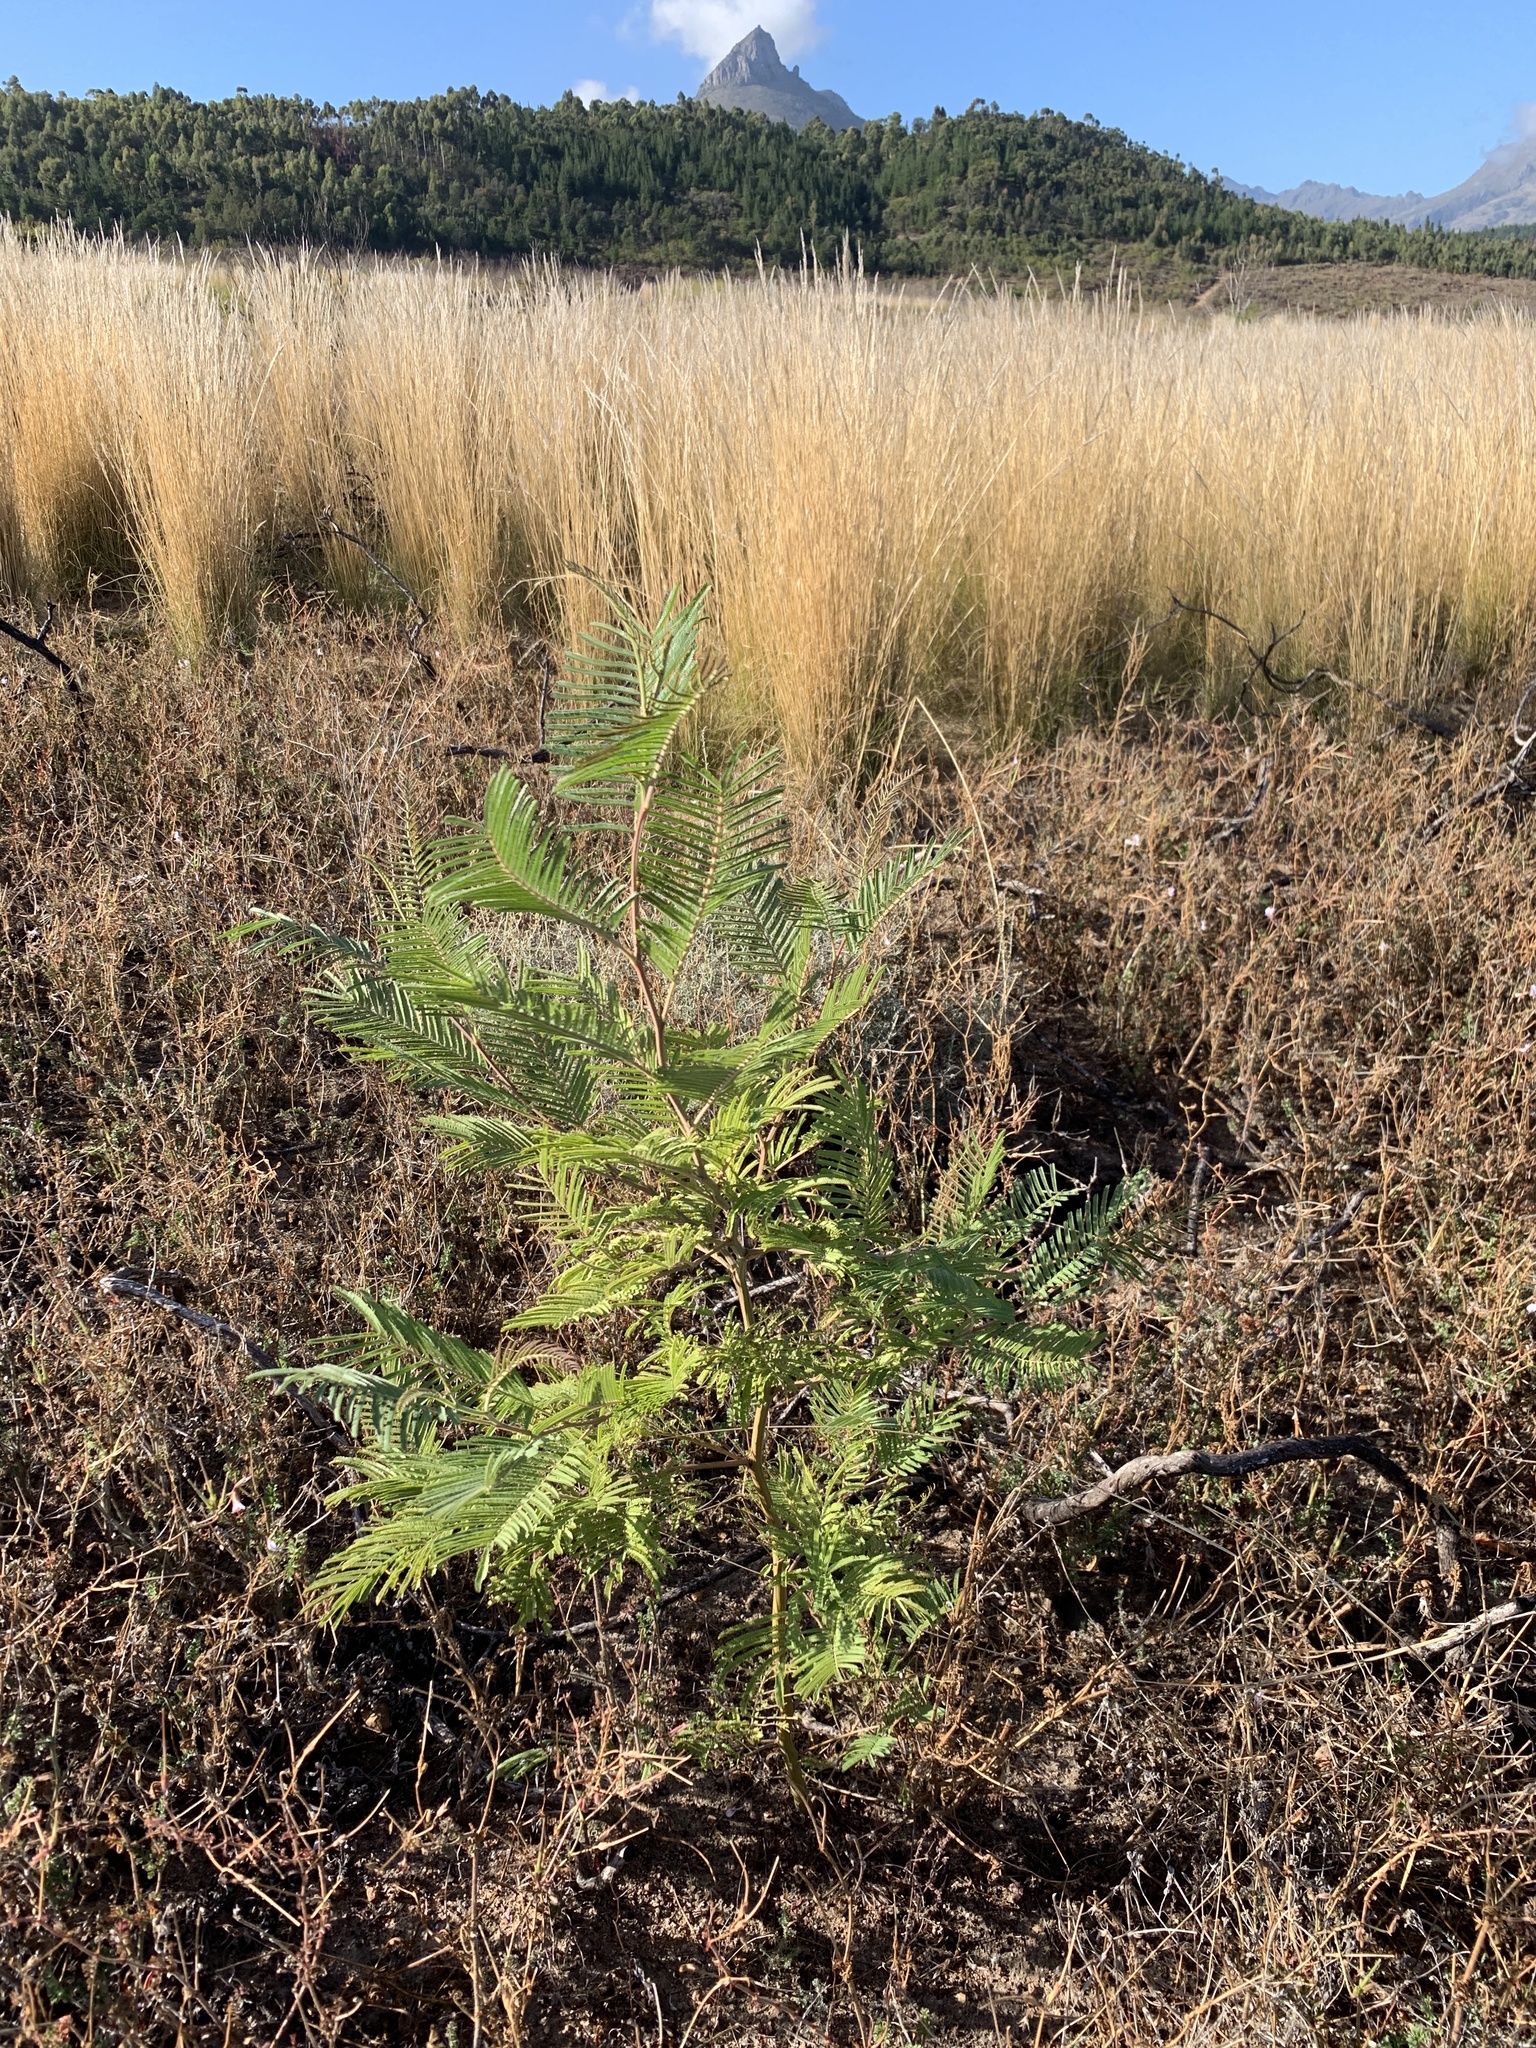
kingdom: Plantae
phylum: Tracheophyta
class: Magnoliopsida
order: Fabales
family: Fabaceae
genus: Acacia
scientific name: Acacia mearnsii
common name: Black wattle
